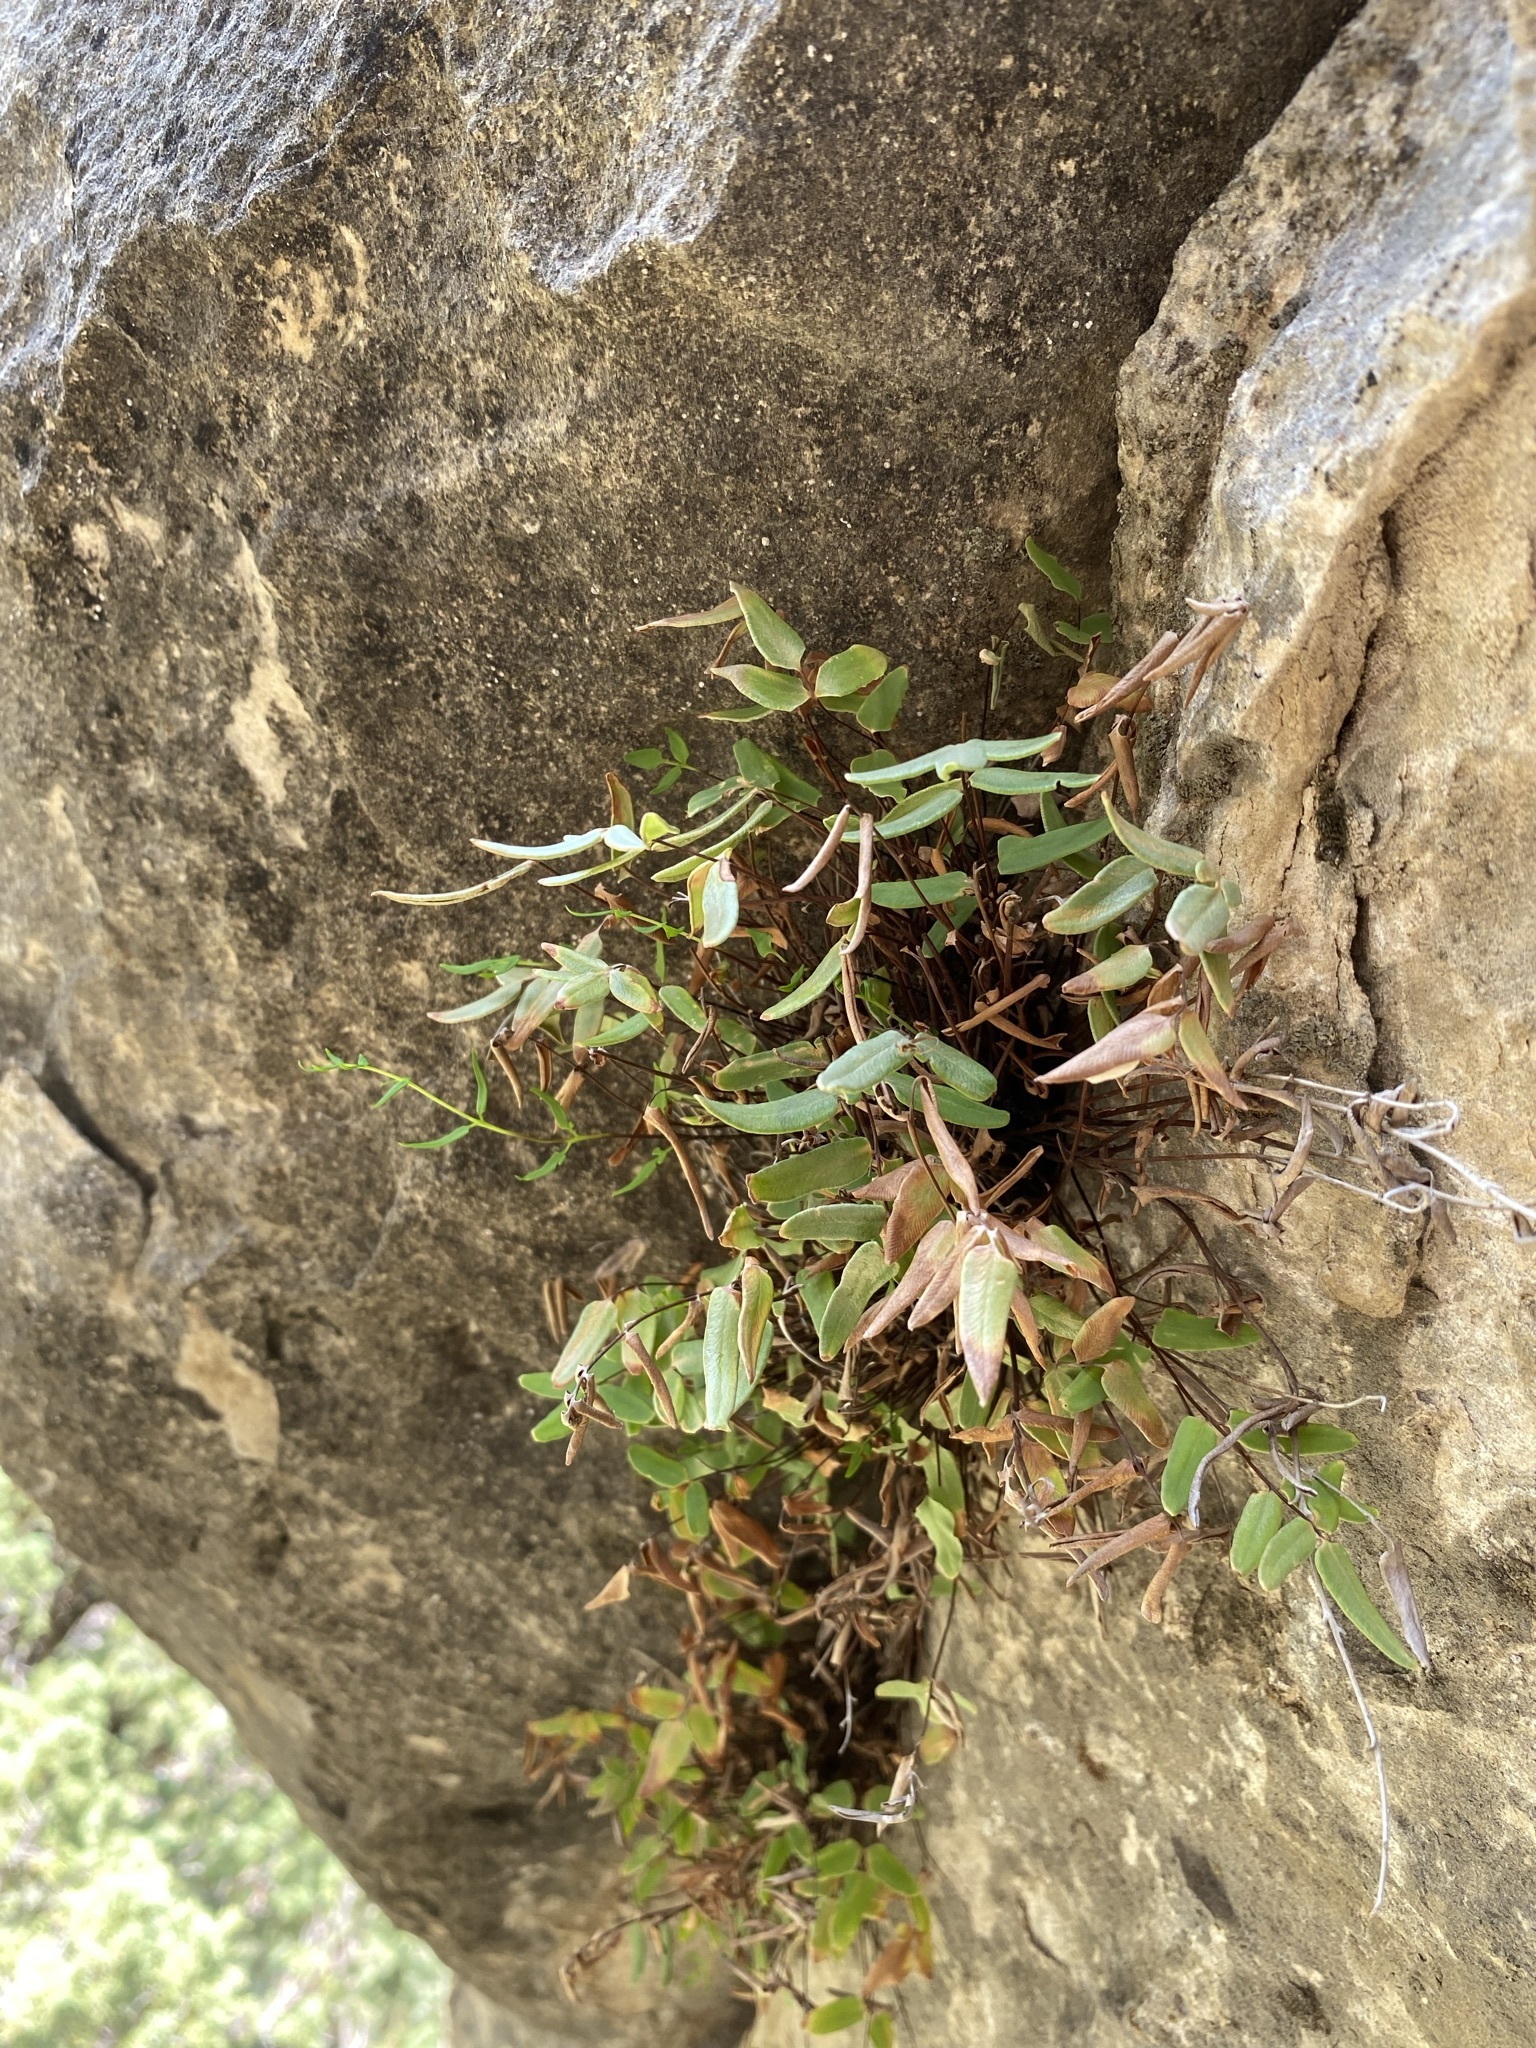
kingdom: Plantae
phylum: Tracheophyta
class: Polypodiopsida
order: Polypodiales
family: Pteridaceae
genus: Pellaea
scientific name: Pellaea glabella
